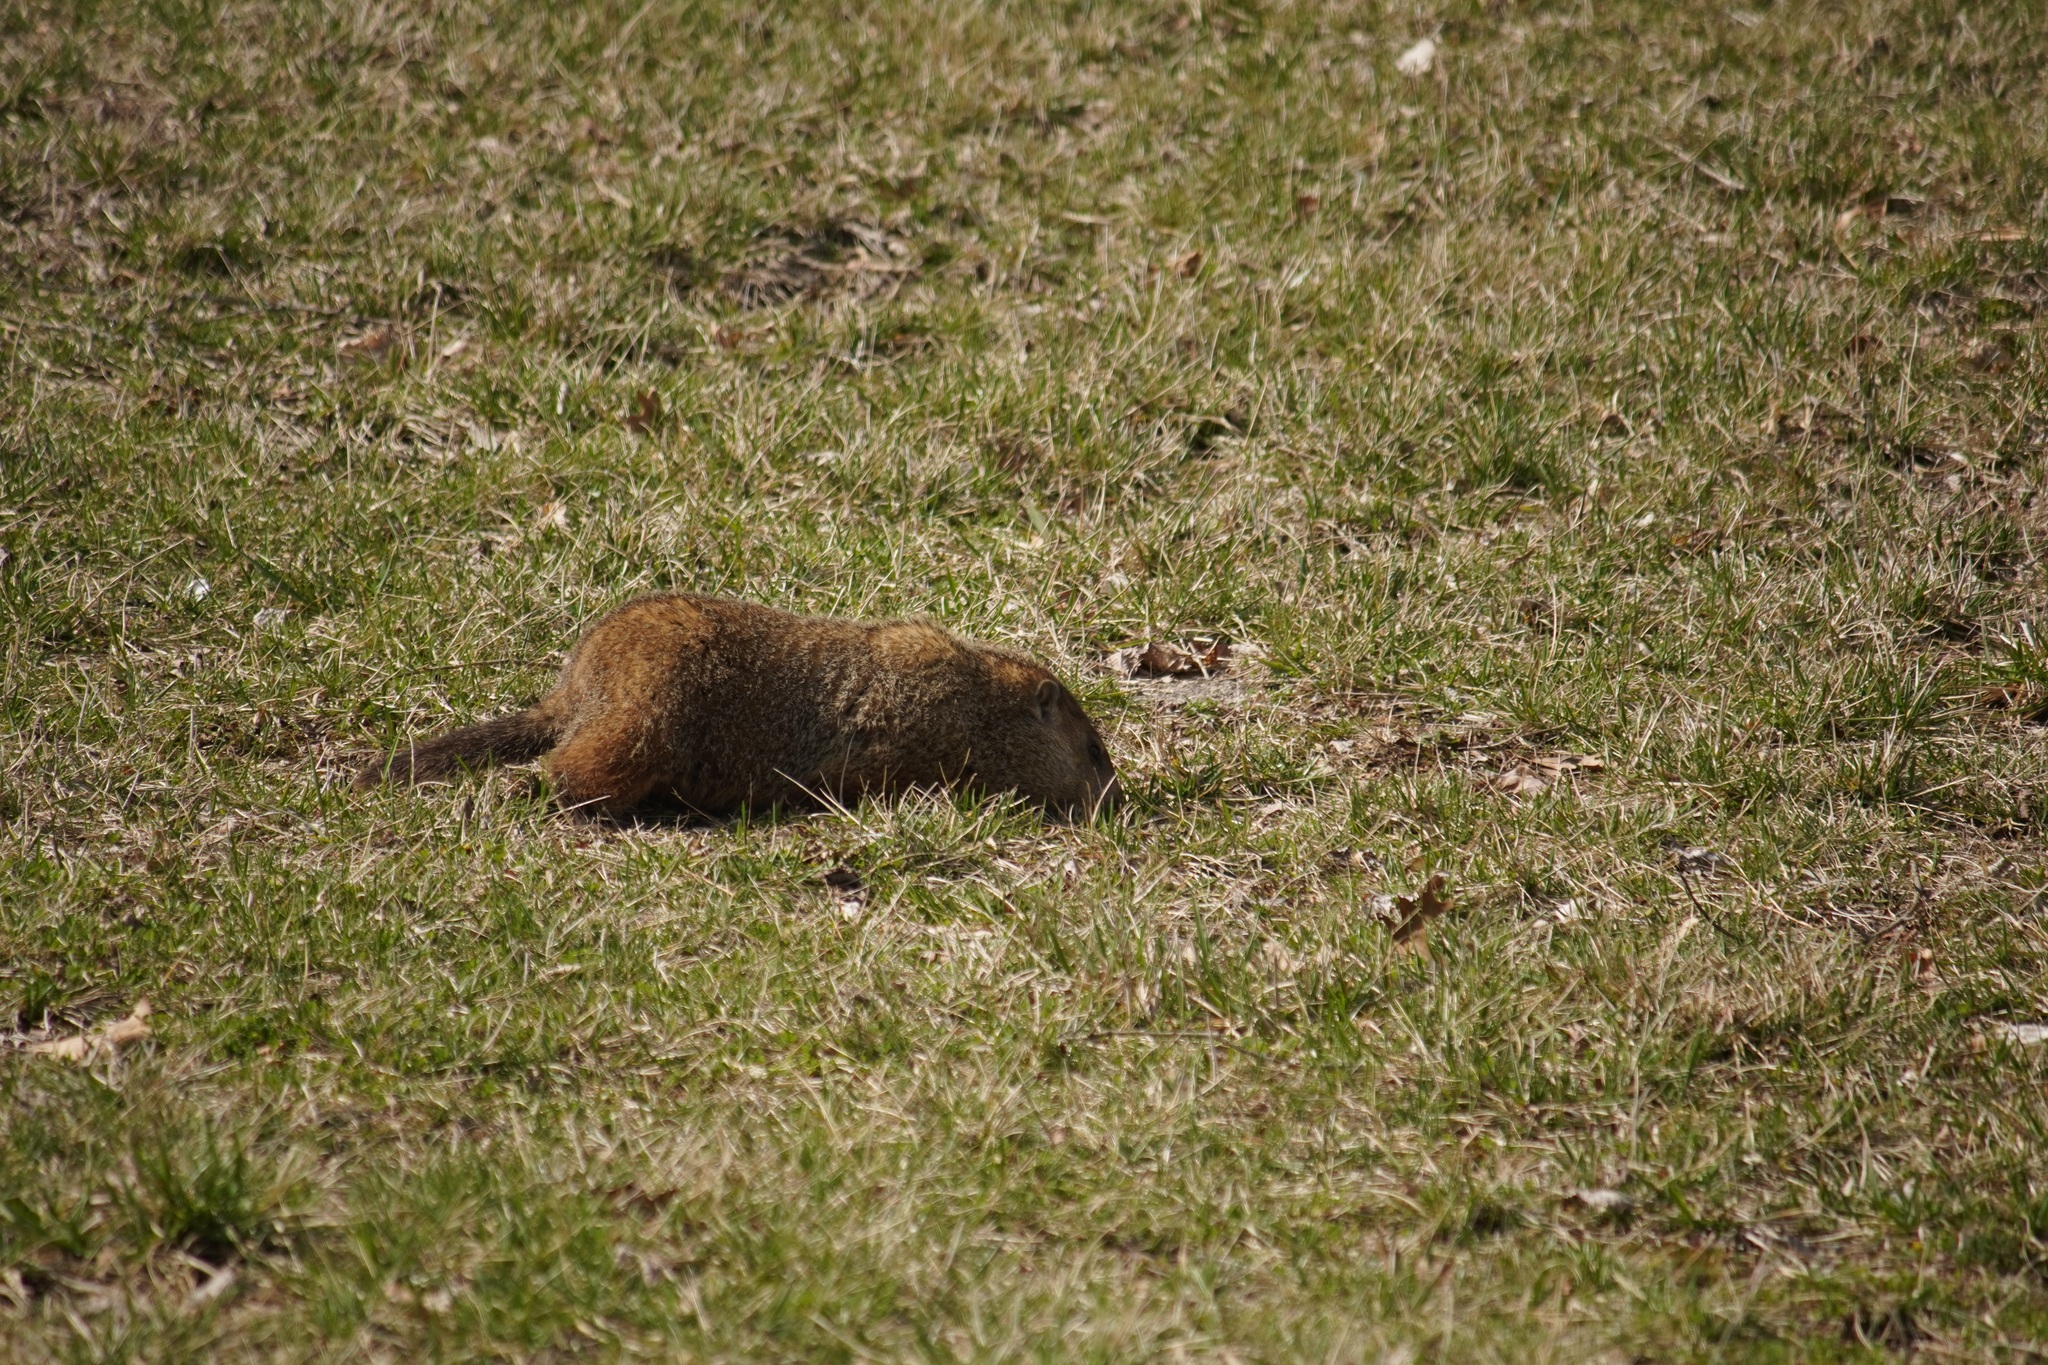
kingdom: Animalia
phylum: Chordata
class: Mammalia
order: Rodentia
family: Sciuridae
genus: Marmota
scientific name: Marmota monax
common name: Groundhog
